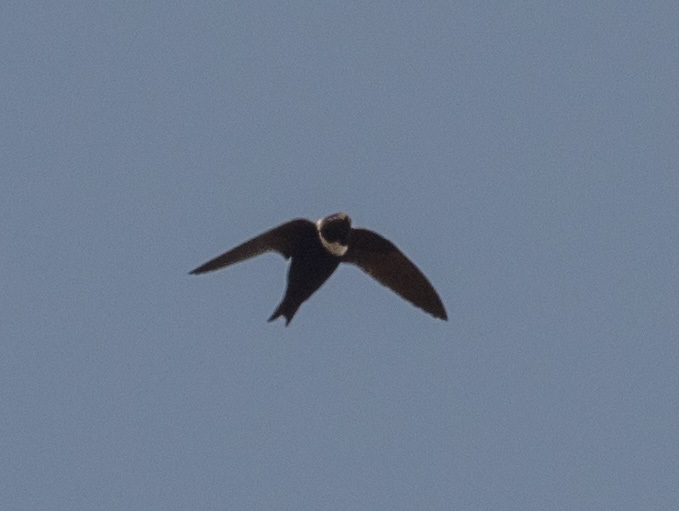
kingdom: Animalia
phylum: Chordata
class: Aves
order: Apodiformes
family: Apodidae
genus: Streptoprocne
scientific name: Streptoprocne zonaris
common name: White-collared swift
